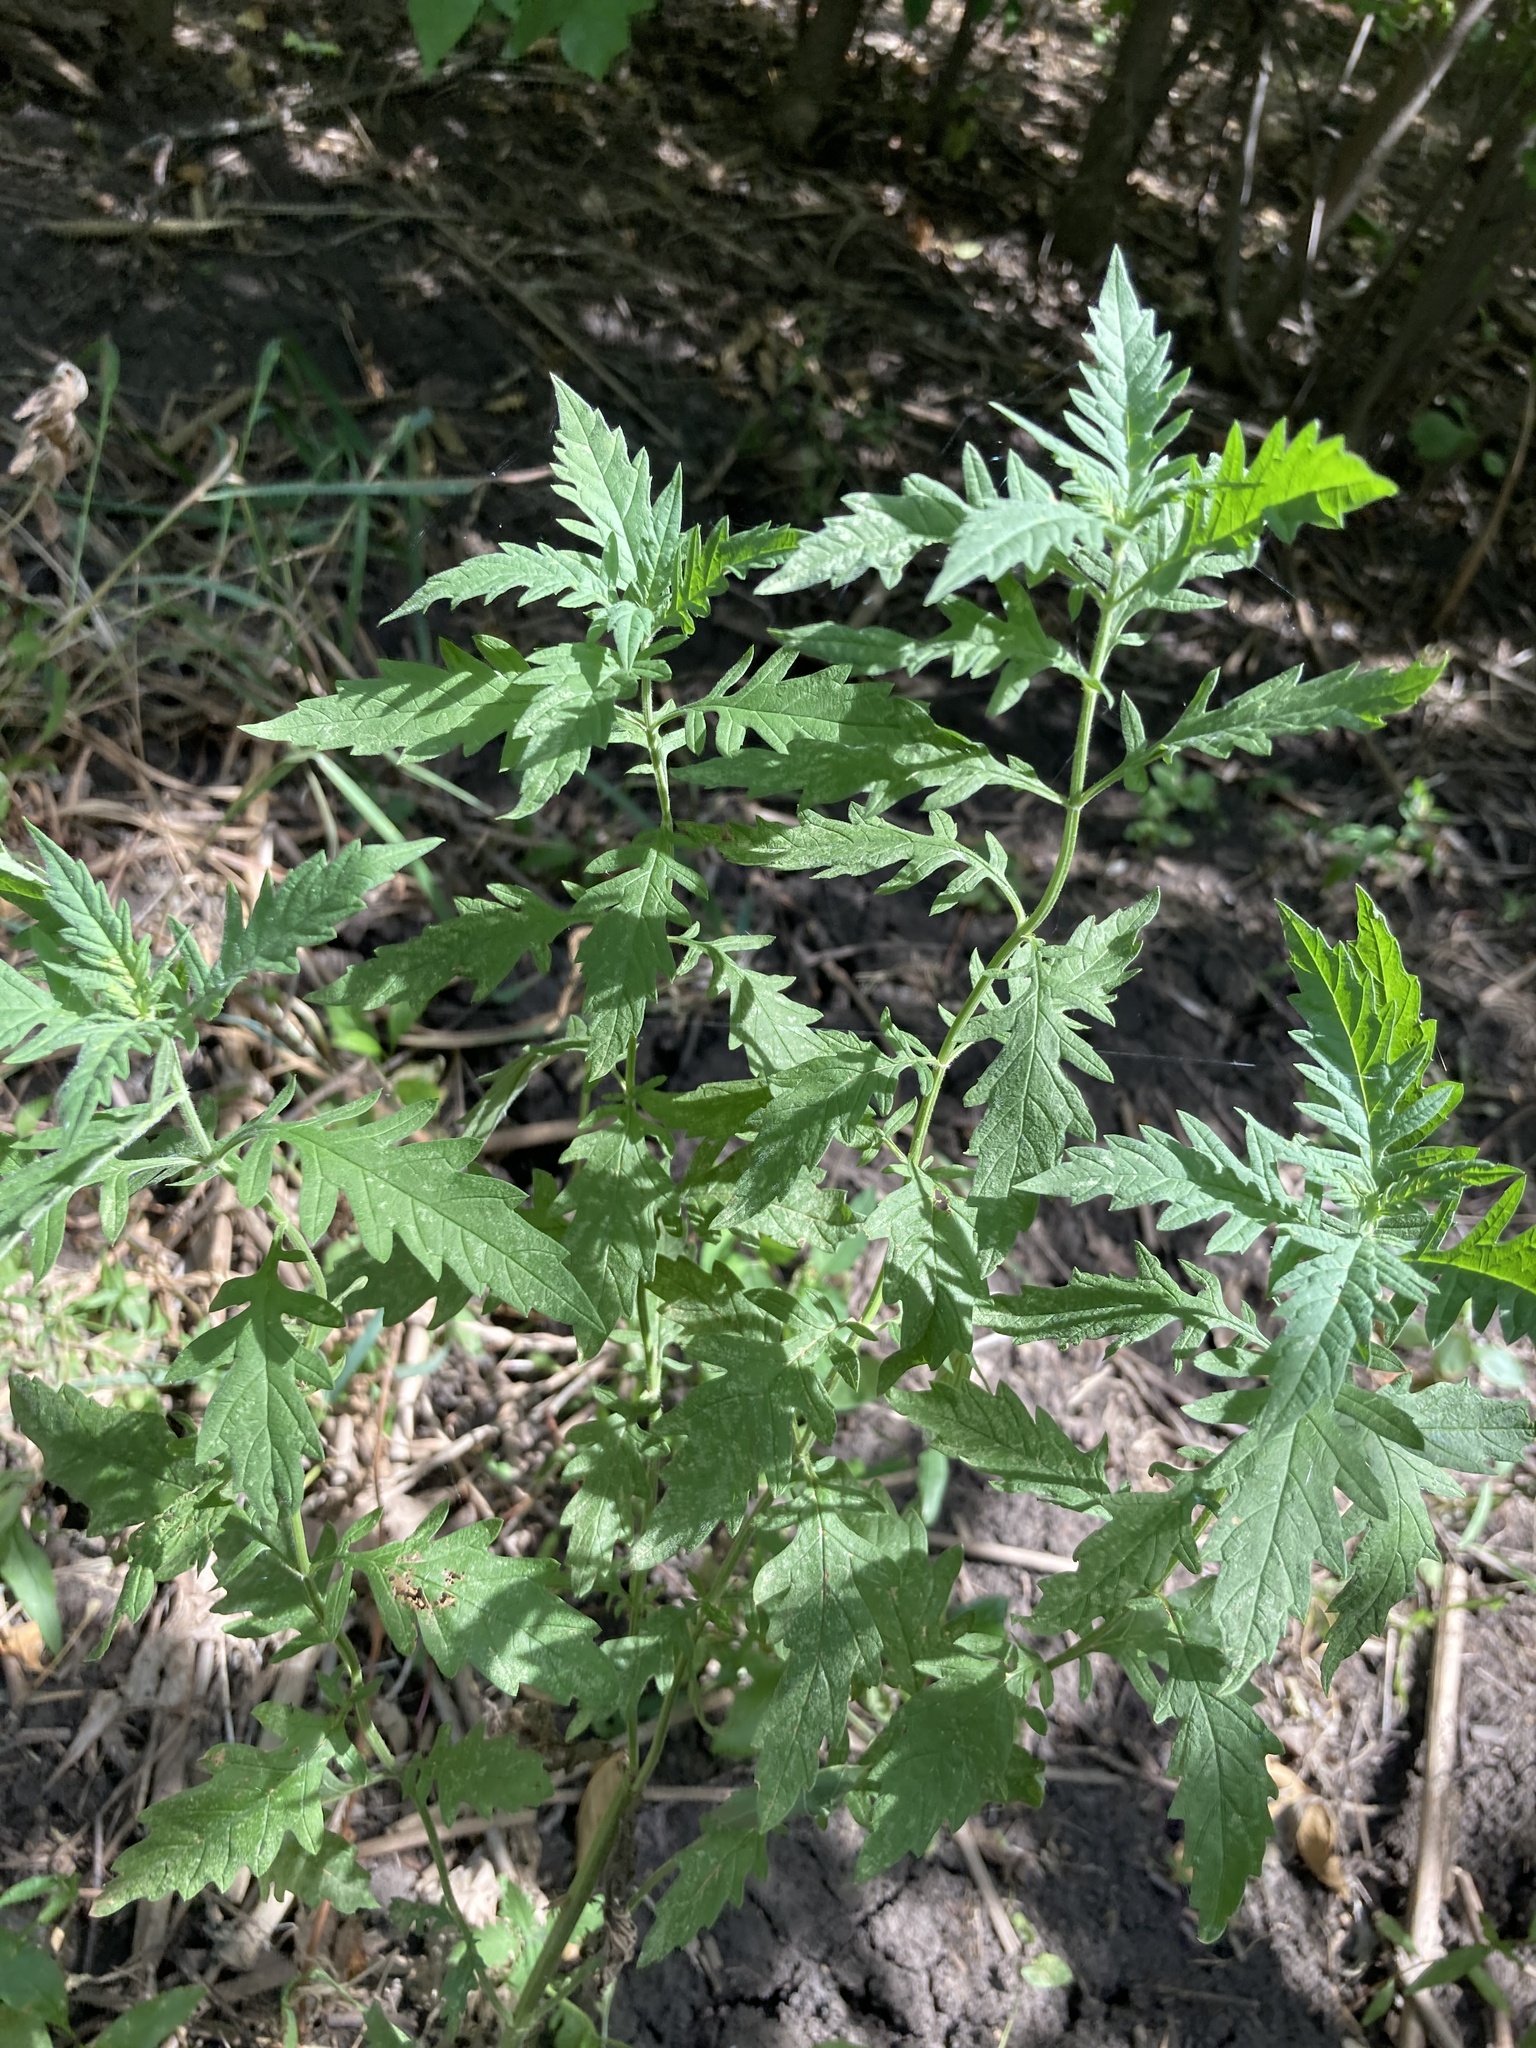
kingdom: Plantae
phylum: Tracheophyta
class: Magnoliopsida
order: Lamiales
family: Lamiaceae
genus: Lycopus
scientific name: Lycopus exaltatus
